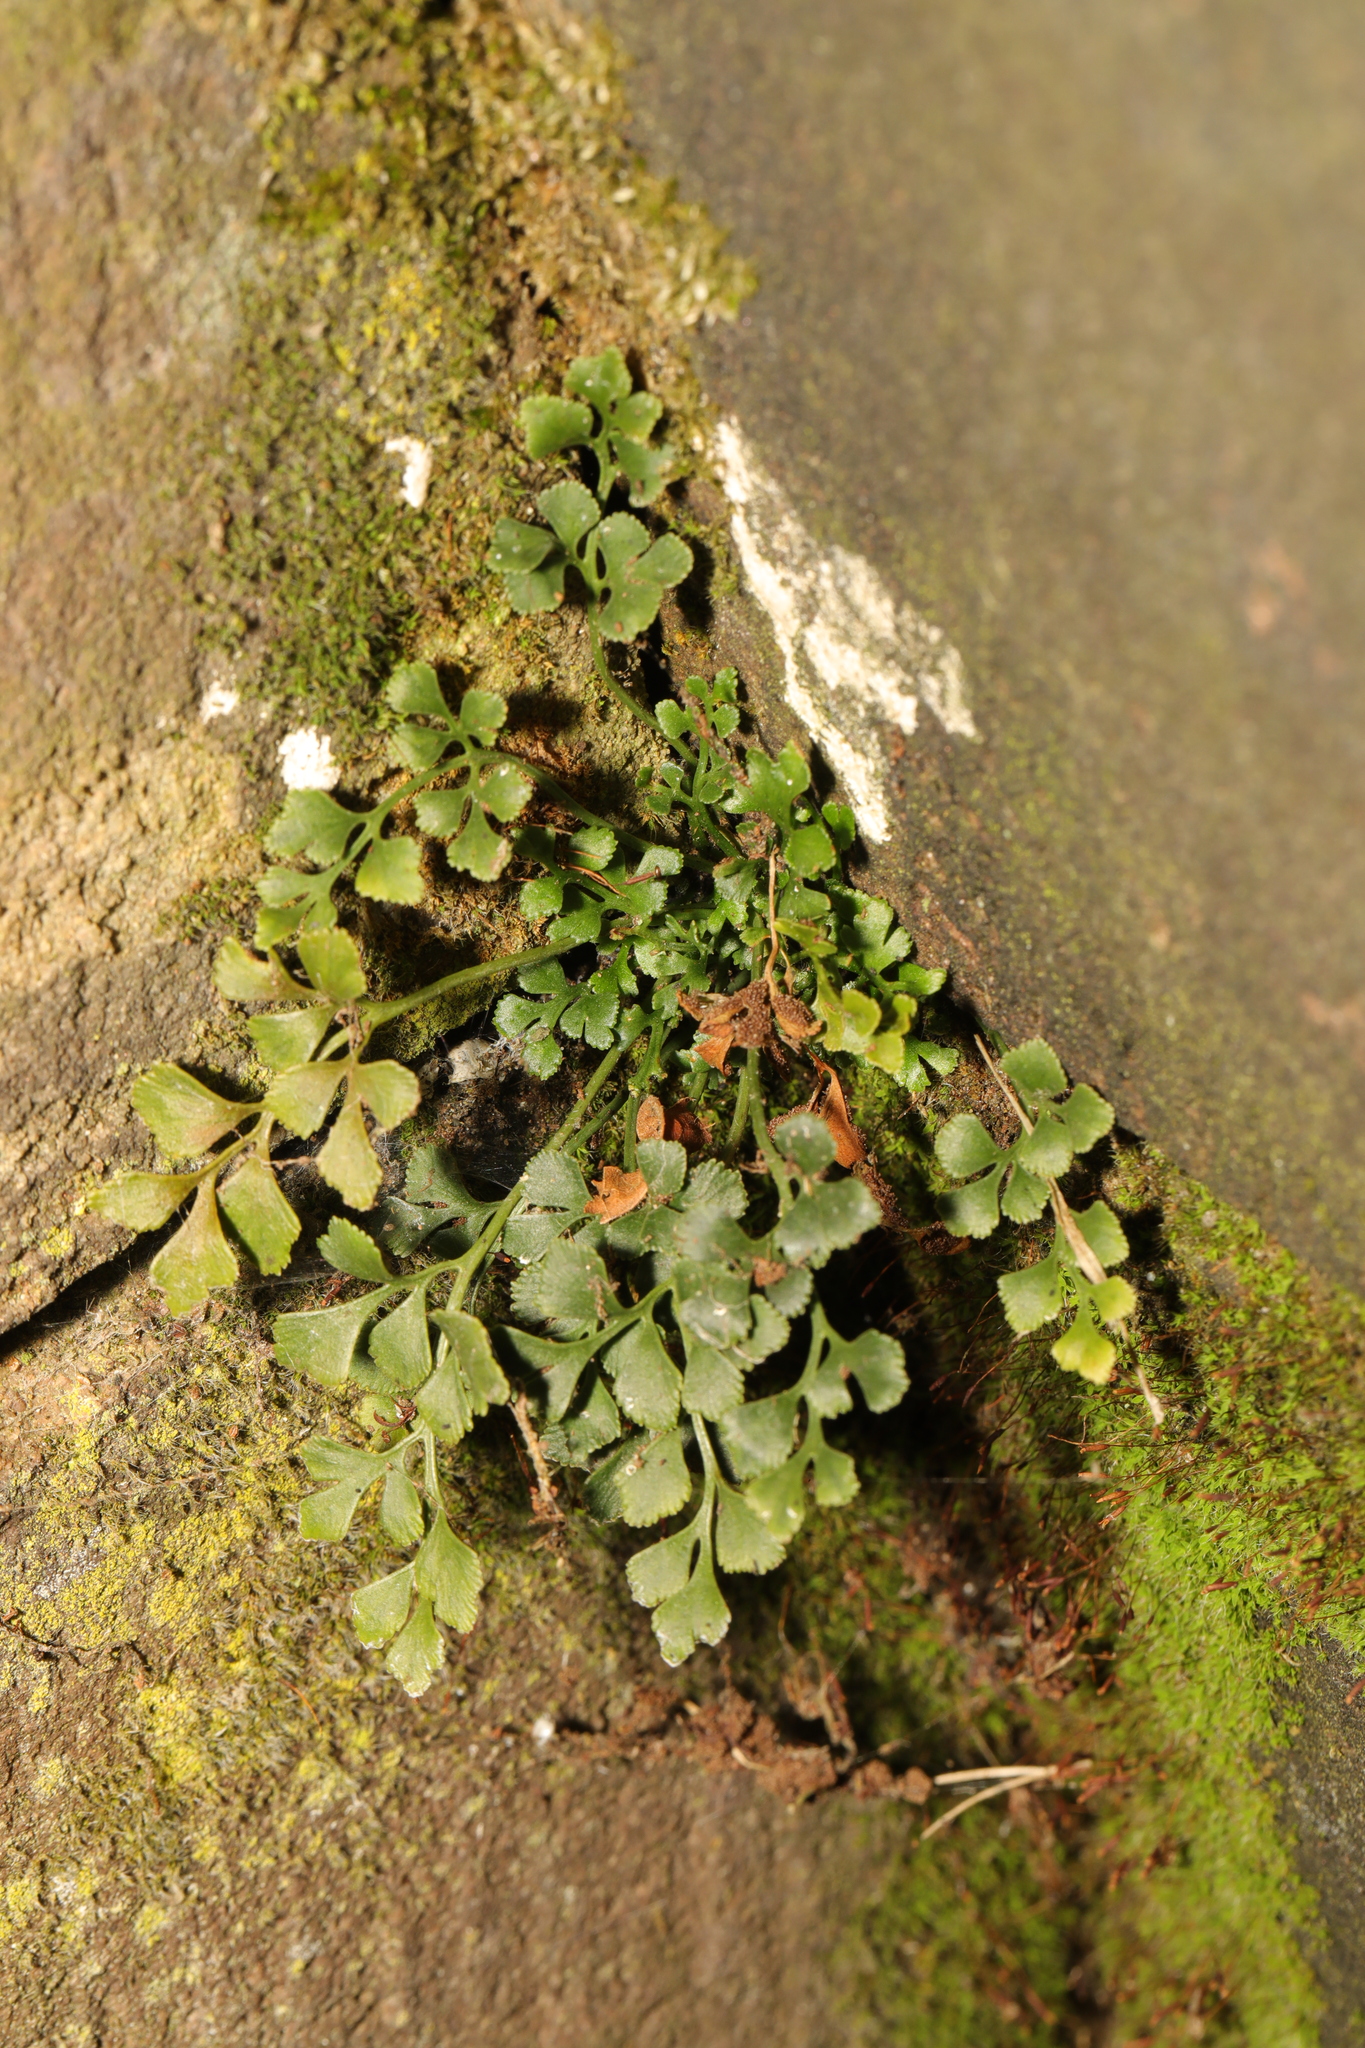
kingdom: Plantae
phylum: Tracheophyta
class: Polypodiopsida
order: Polypodiales
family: Aspleniaceae
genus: Asplenium
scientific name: Asplenium ruta-muraria
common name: Wall-rue
